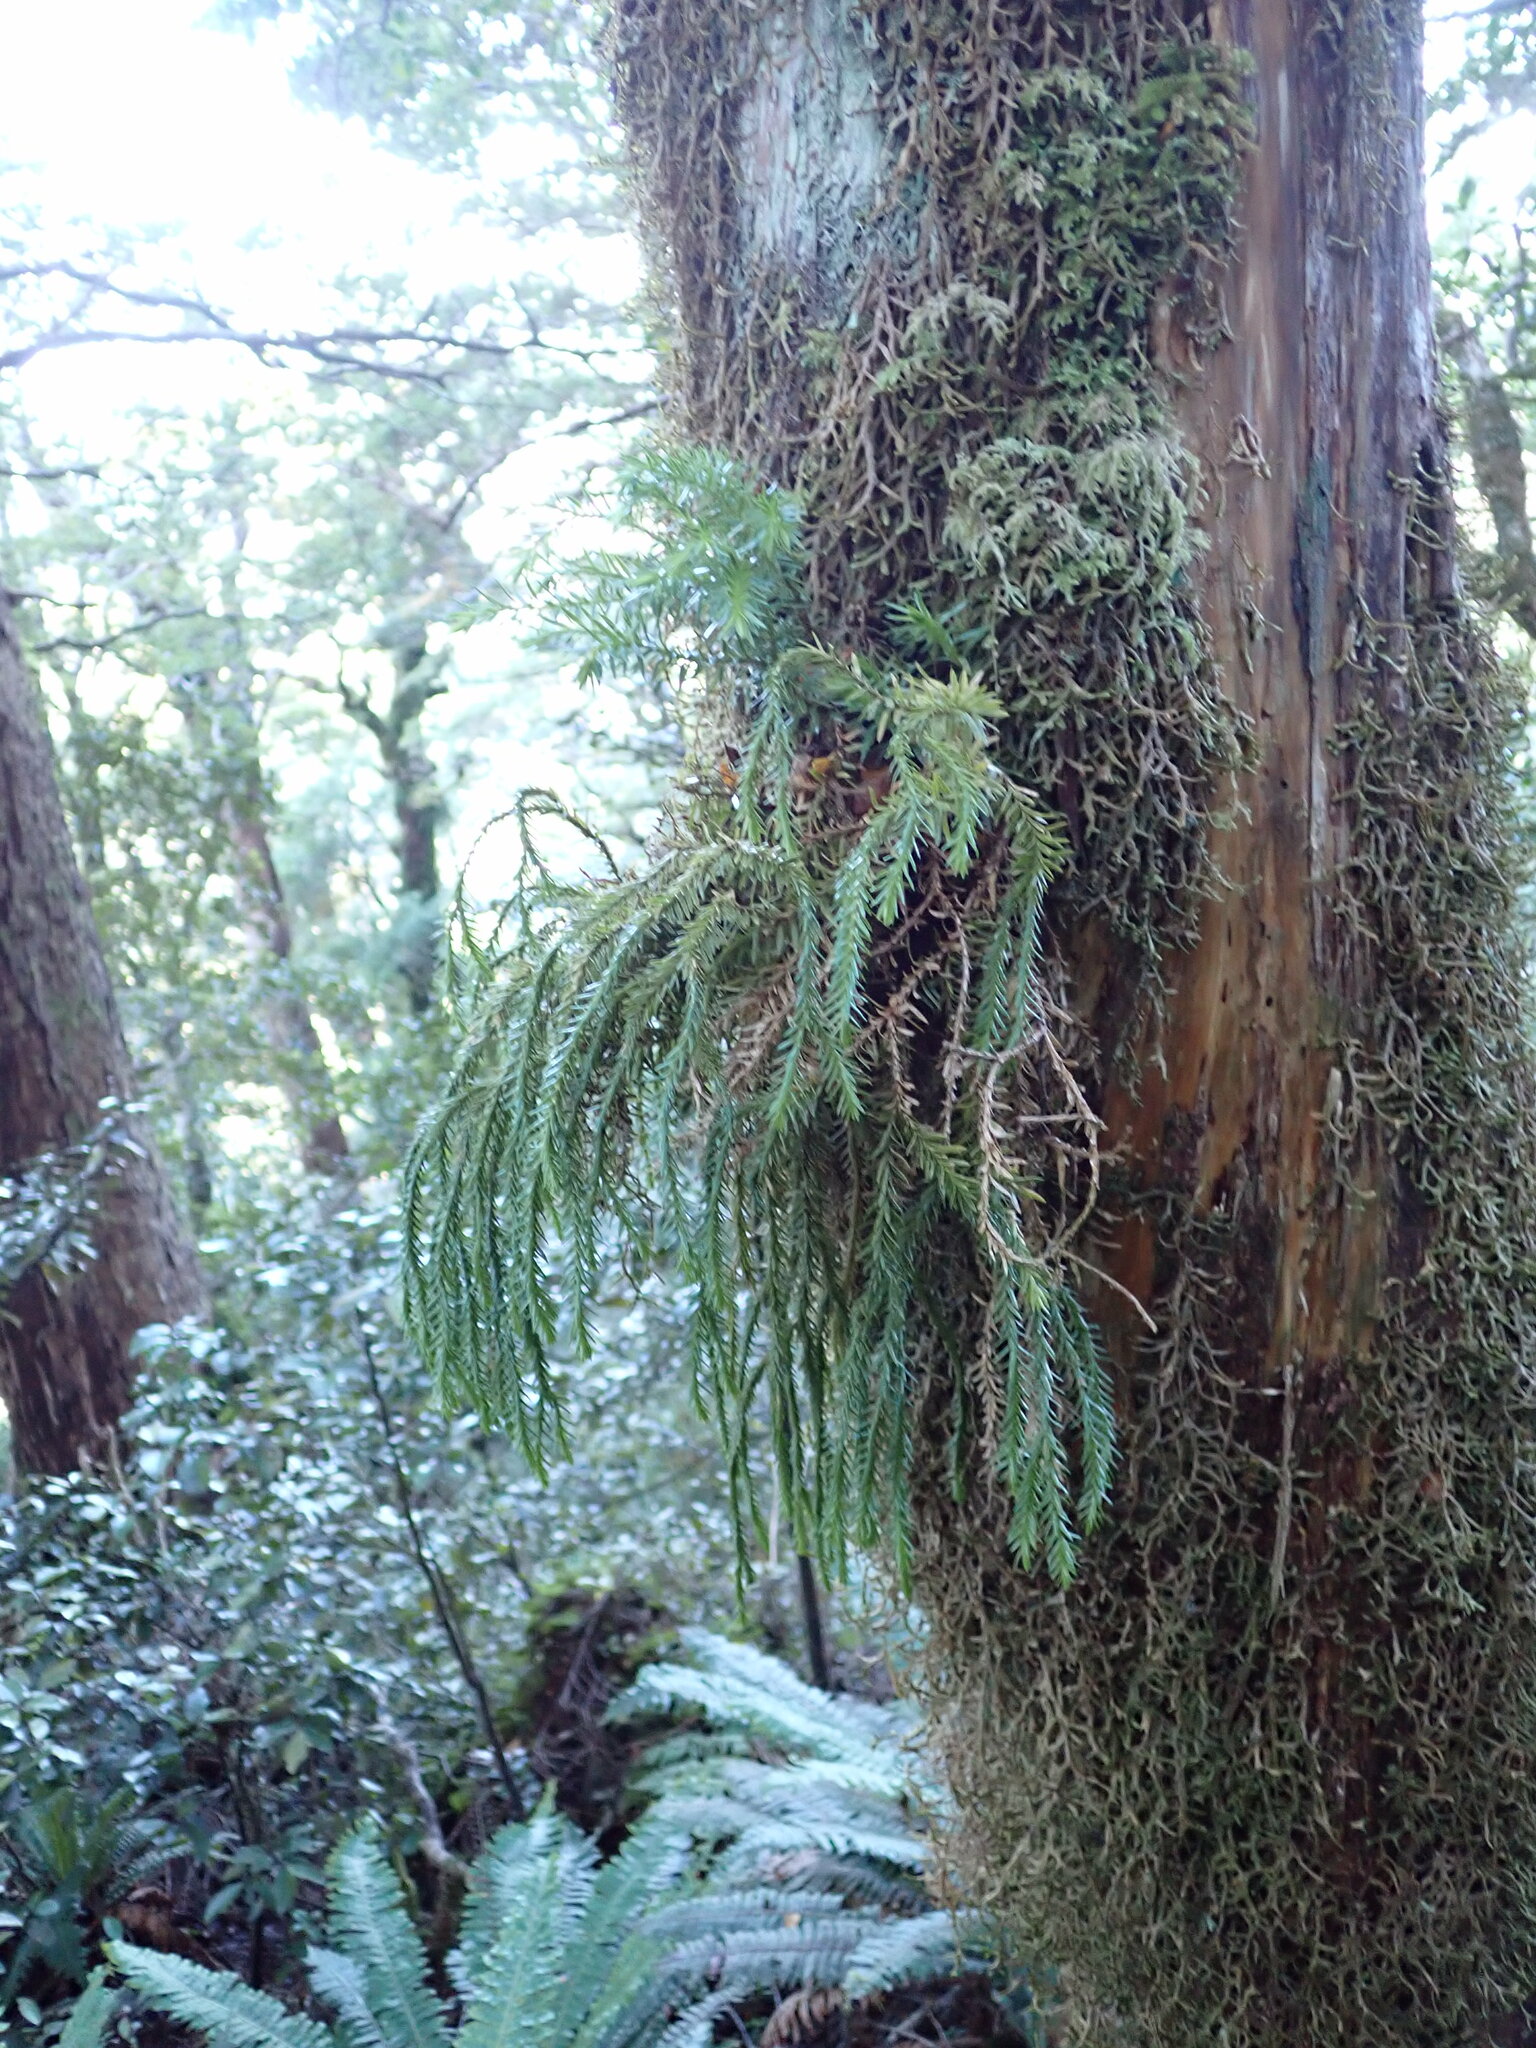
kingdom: Plantae
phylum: Tracheophyta
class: Lycopodiopsida
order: Lycopodiales
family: Lycopodiaceae
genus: Phlegmariurus
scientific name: Phlegmariurus varius
